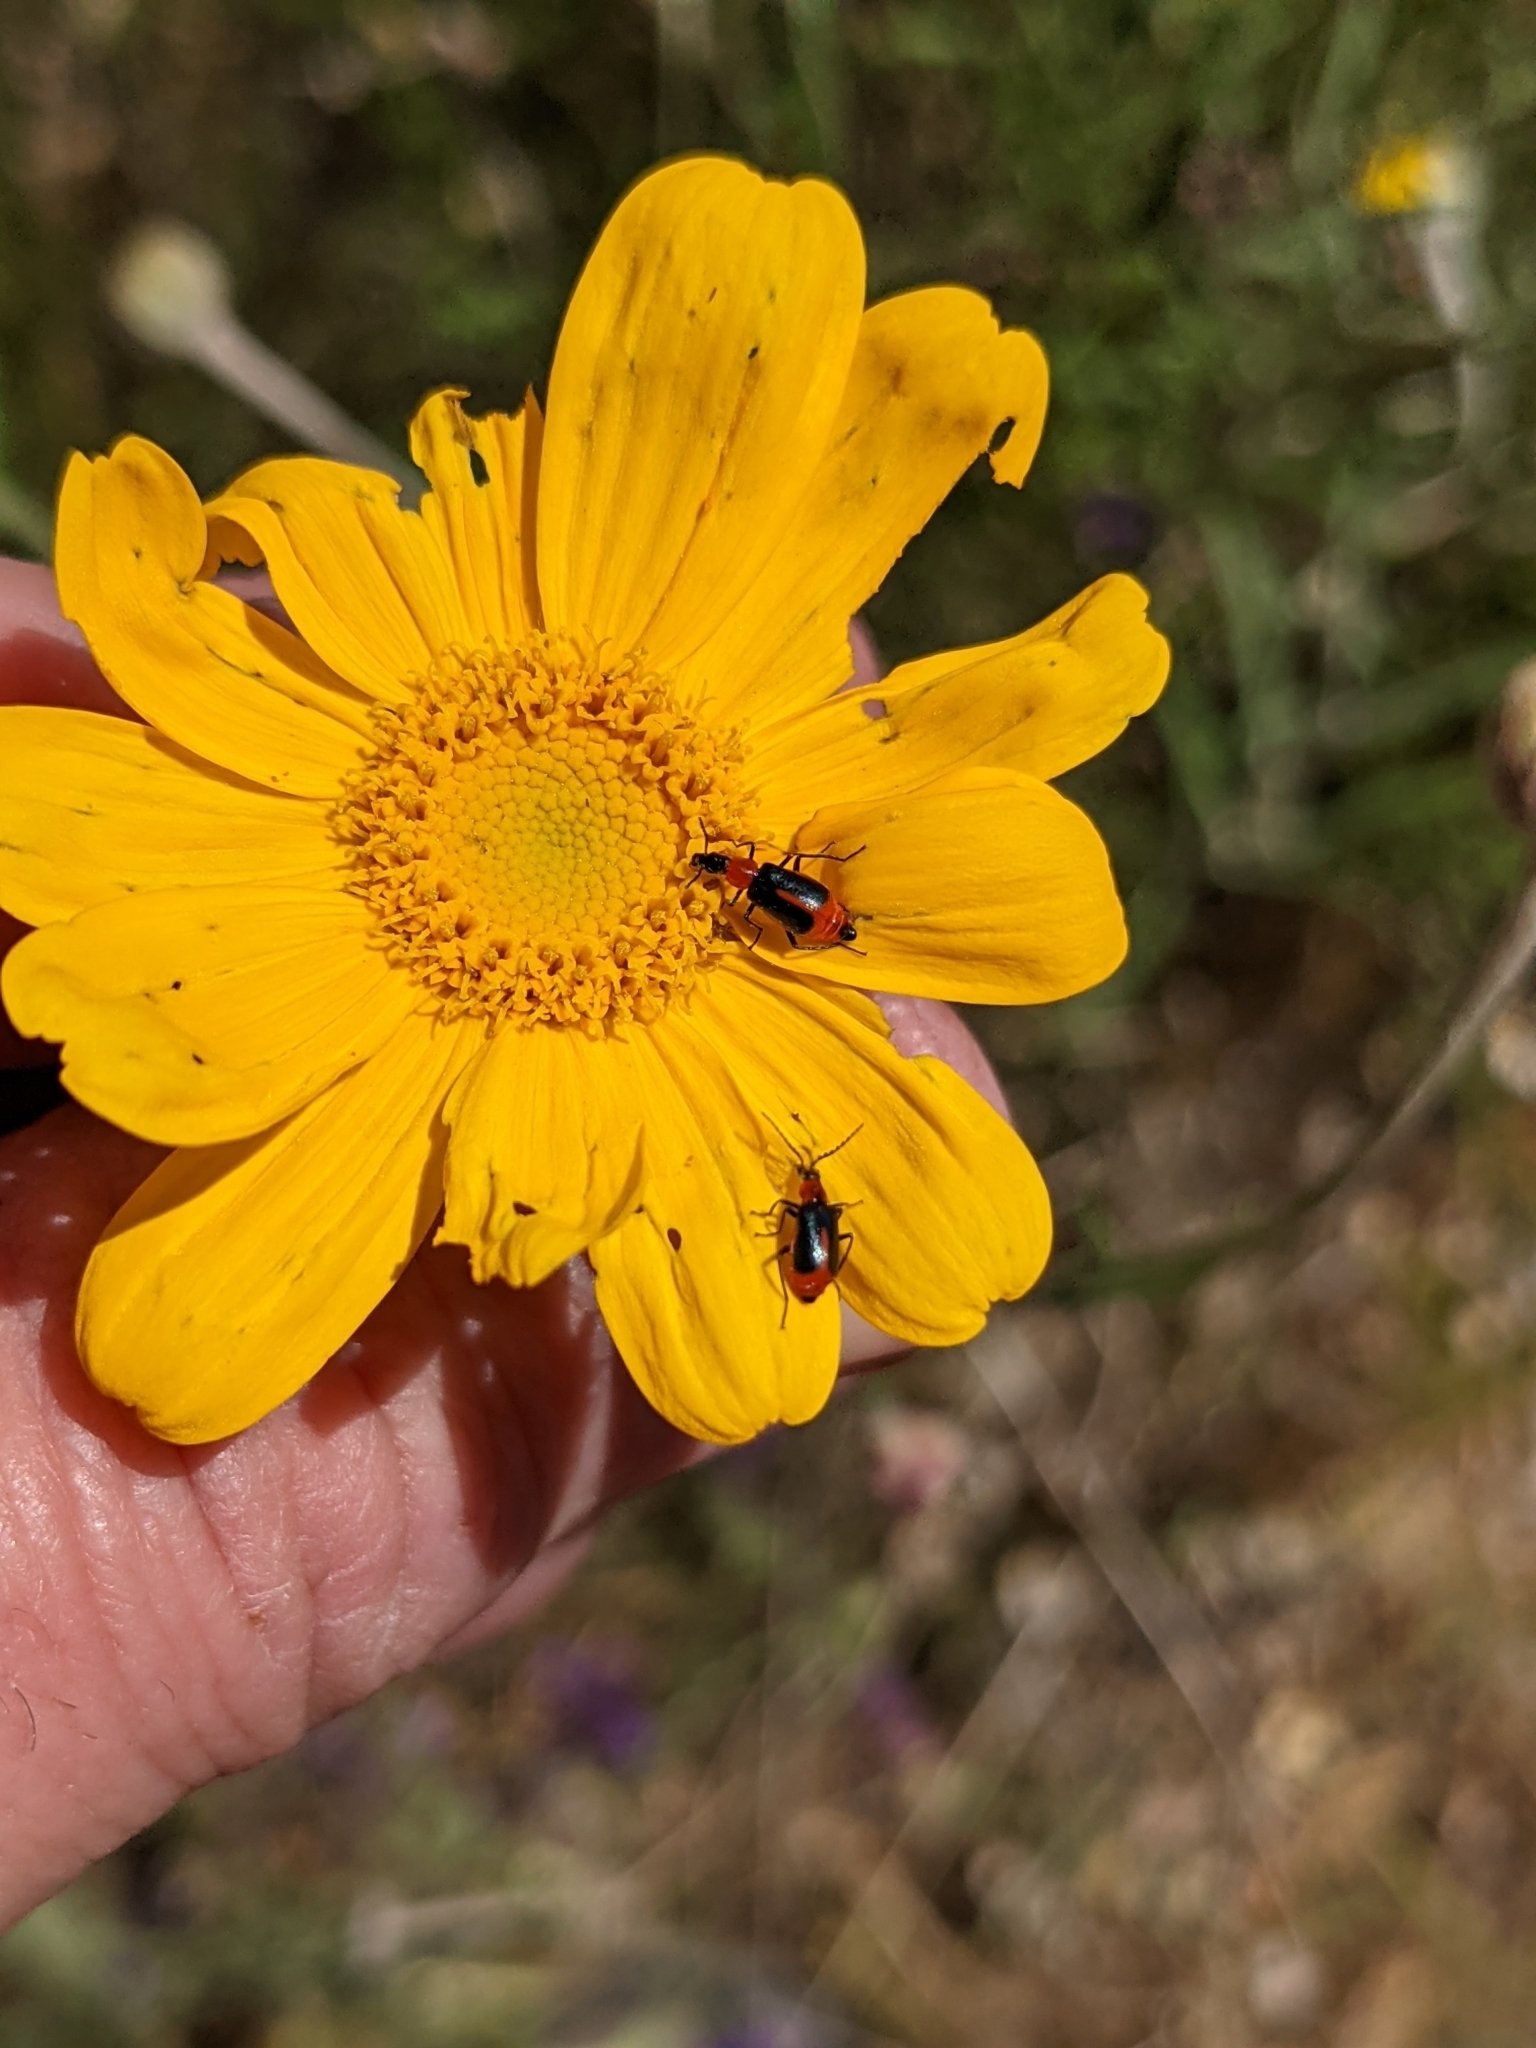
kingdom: Plantae
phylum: Tracheophyta
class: Magnoliopsida
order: Asterales
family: Asteraceae
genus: Eriophyllum
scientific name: Eriophyllum lanatum
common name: Common woolly-sunflower
